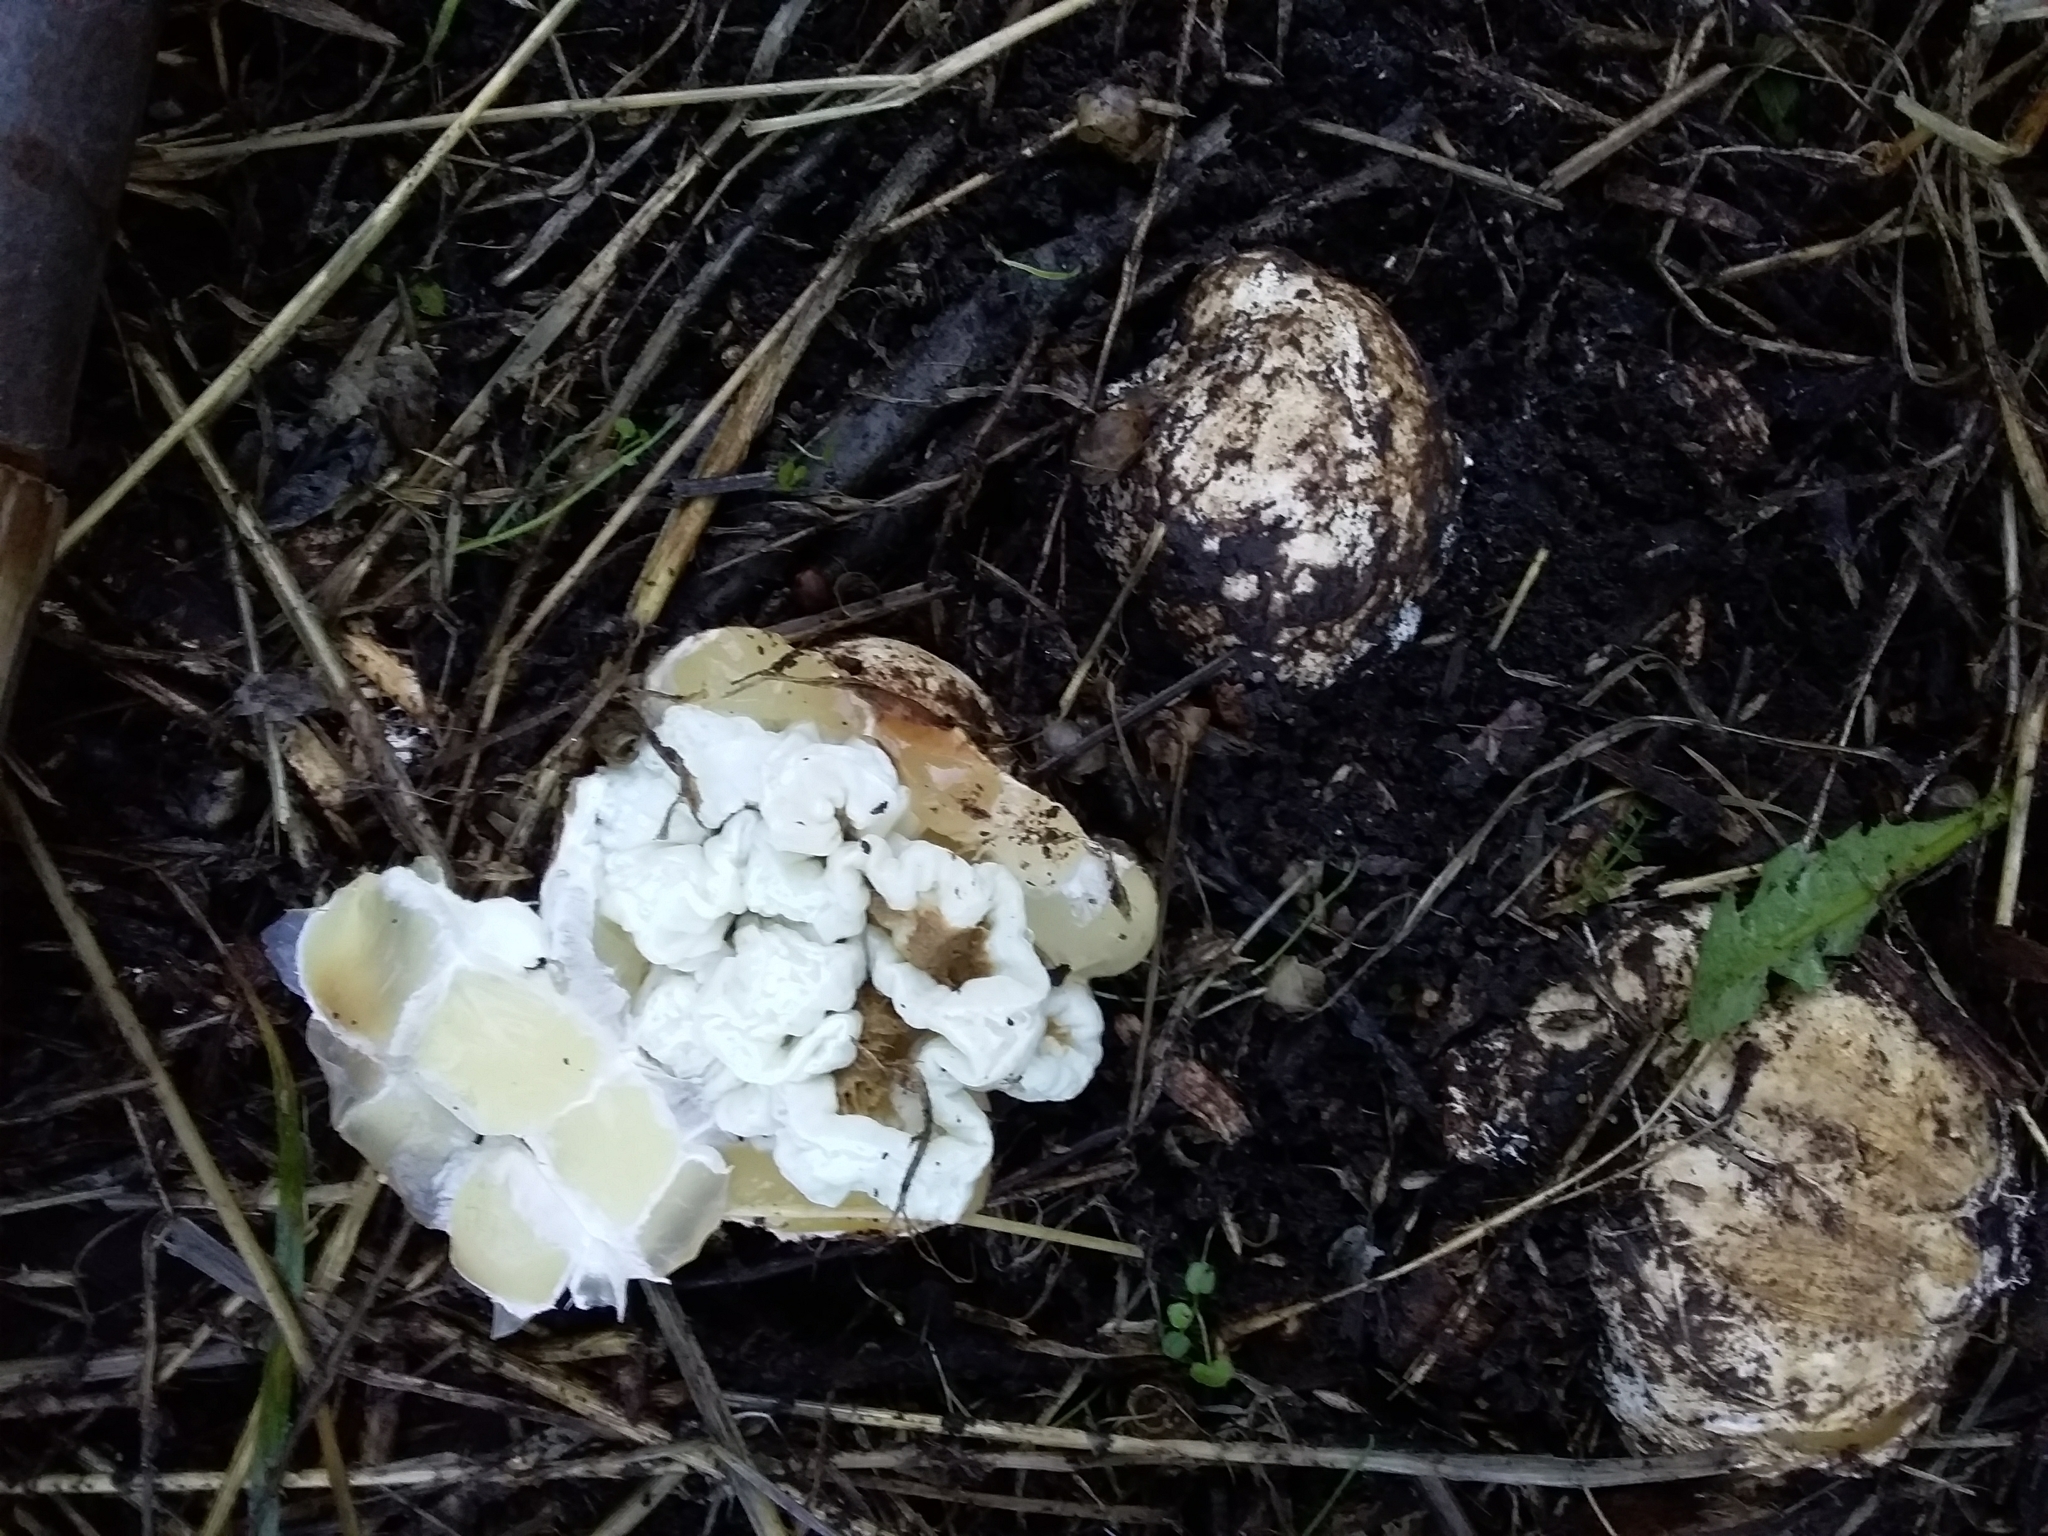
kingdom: Fungi
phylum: Basidiomycota
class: Agaricomycetes
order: Phallales
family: Phallaceae
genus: Ileodictyon
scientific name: Ileodictyon cibarium
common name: Basket fungus
